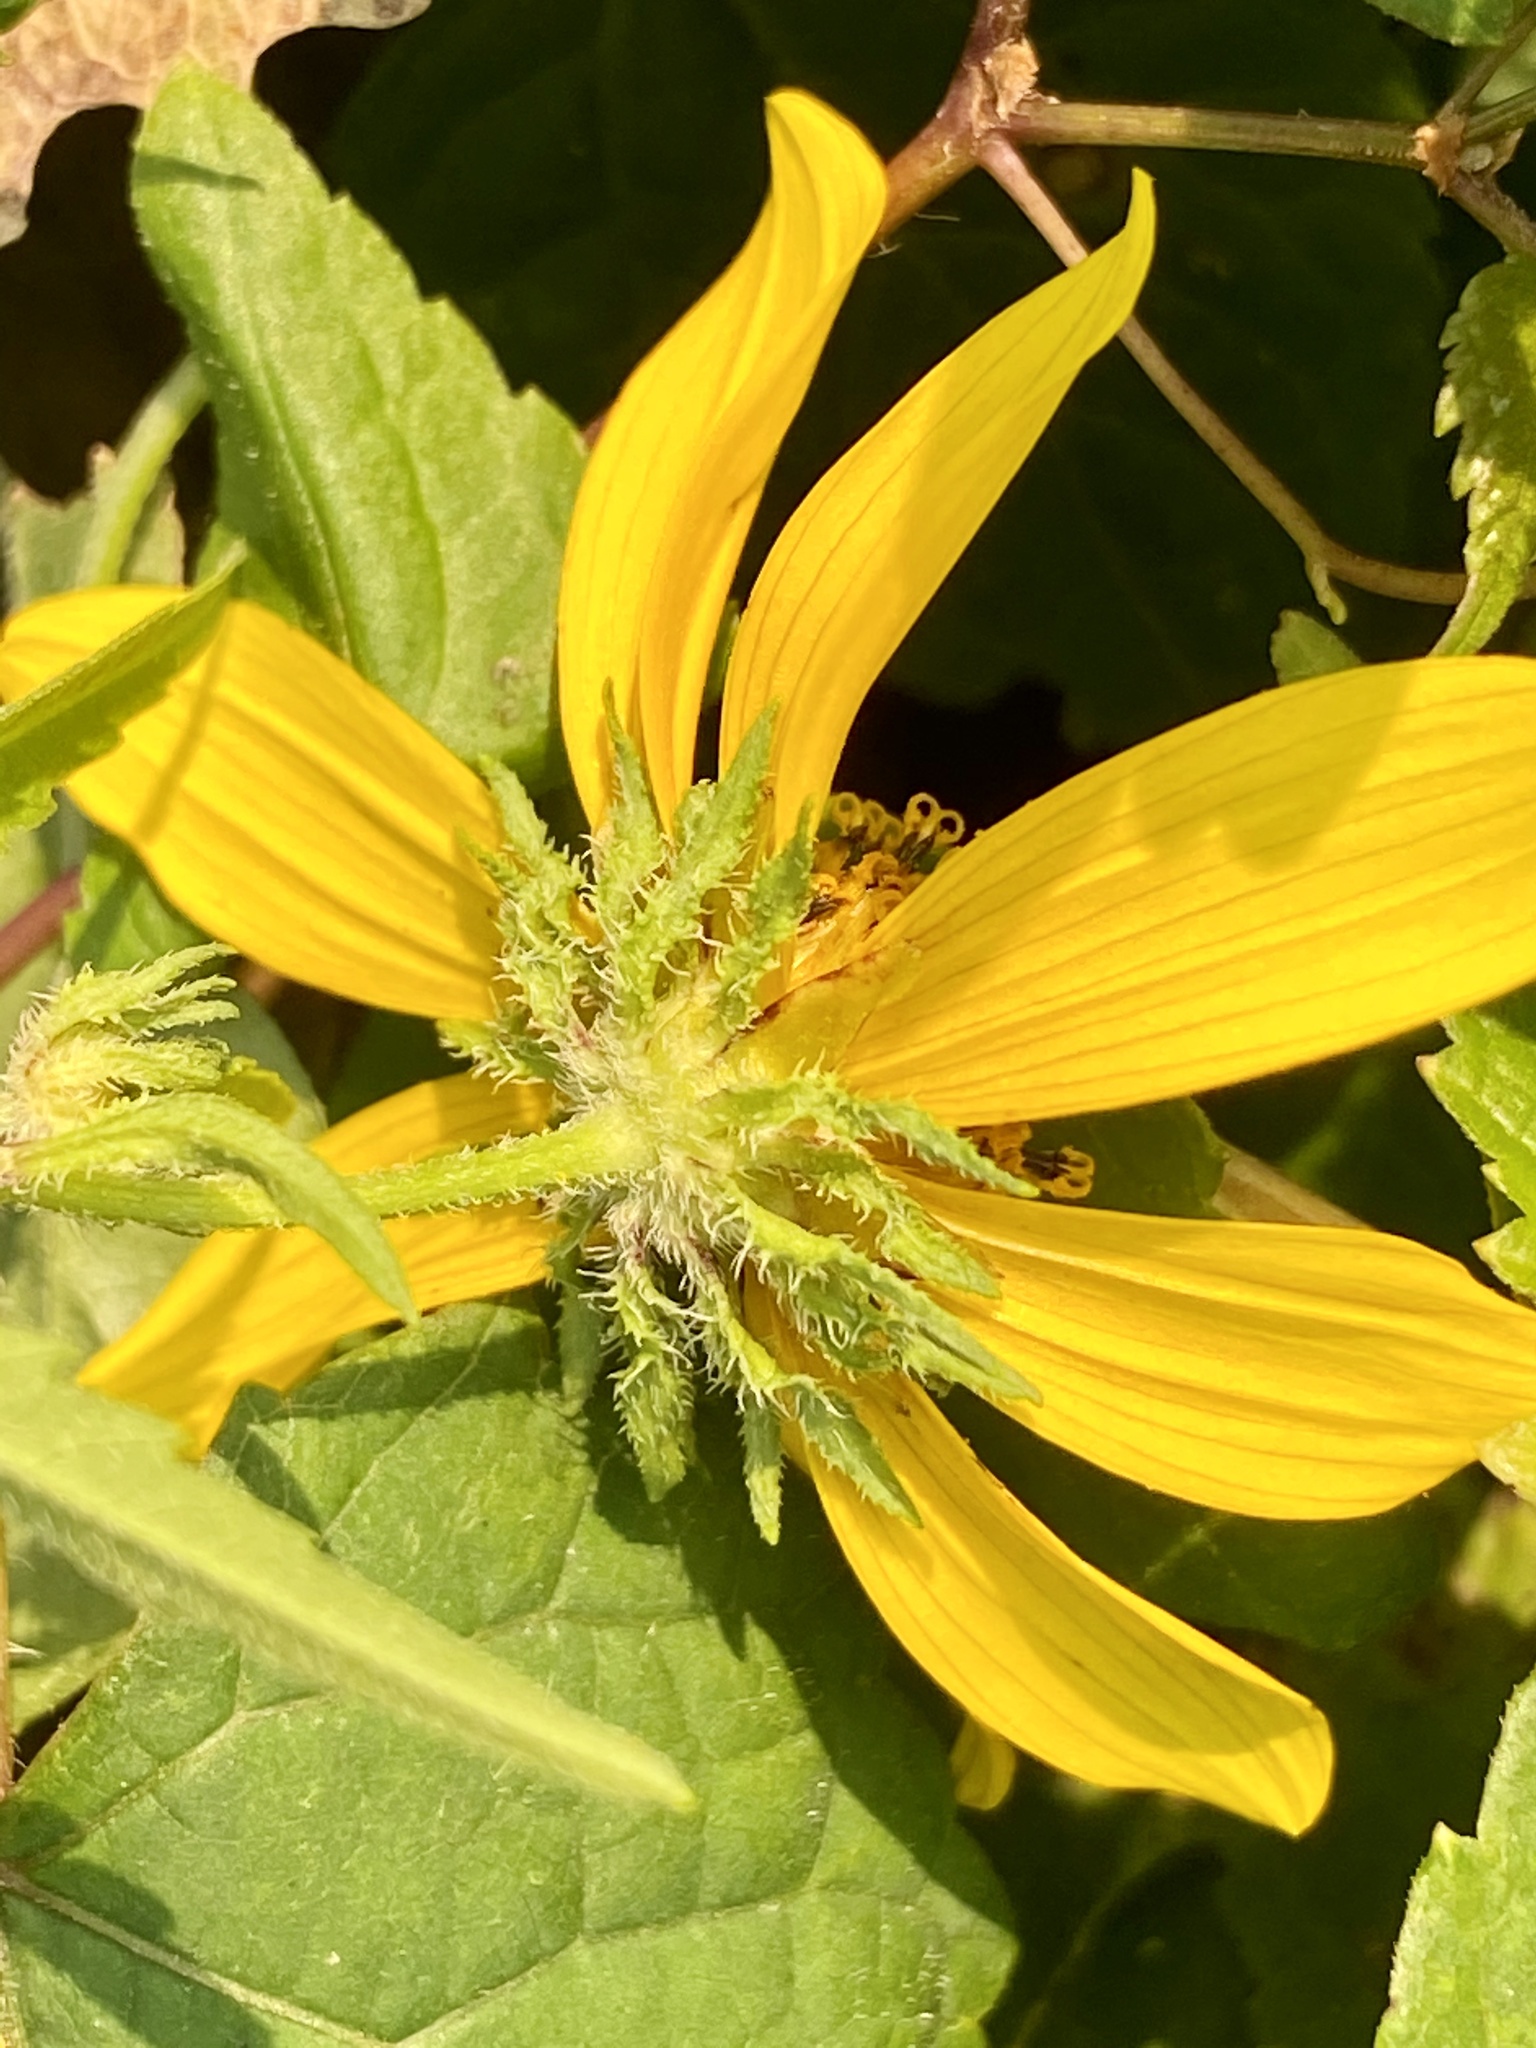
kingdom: Plantae
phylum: Tracheophyta
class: Magnoliopsida
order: Asterales
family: Asteraceae
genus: Bidens
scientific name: Bidens polylepis
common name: Awnless beggarticks
